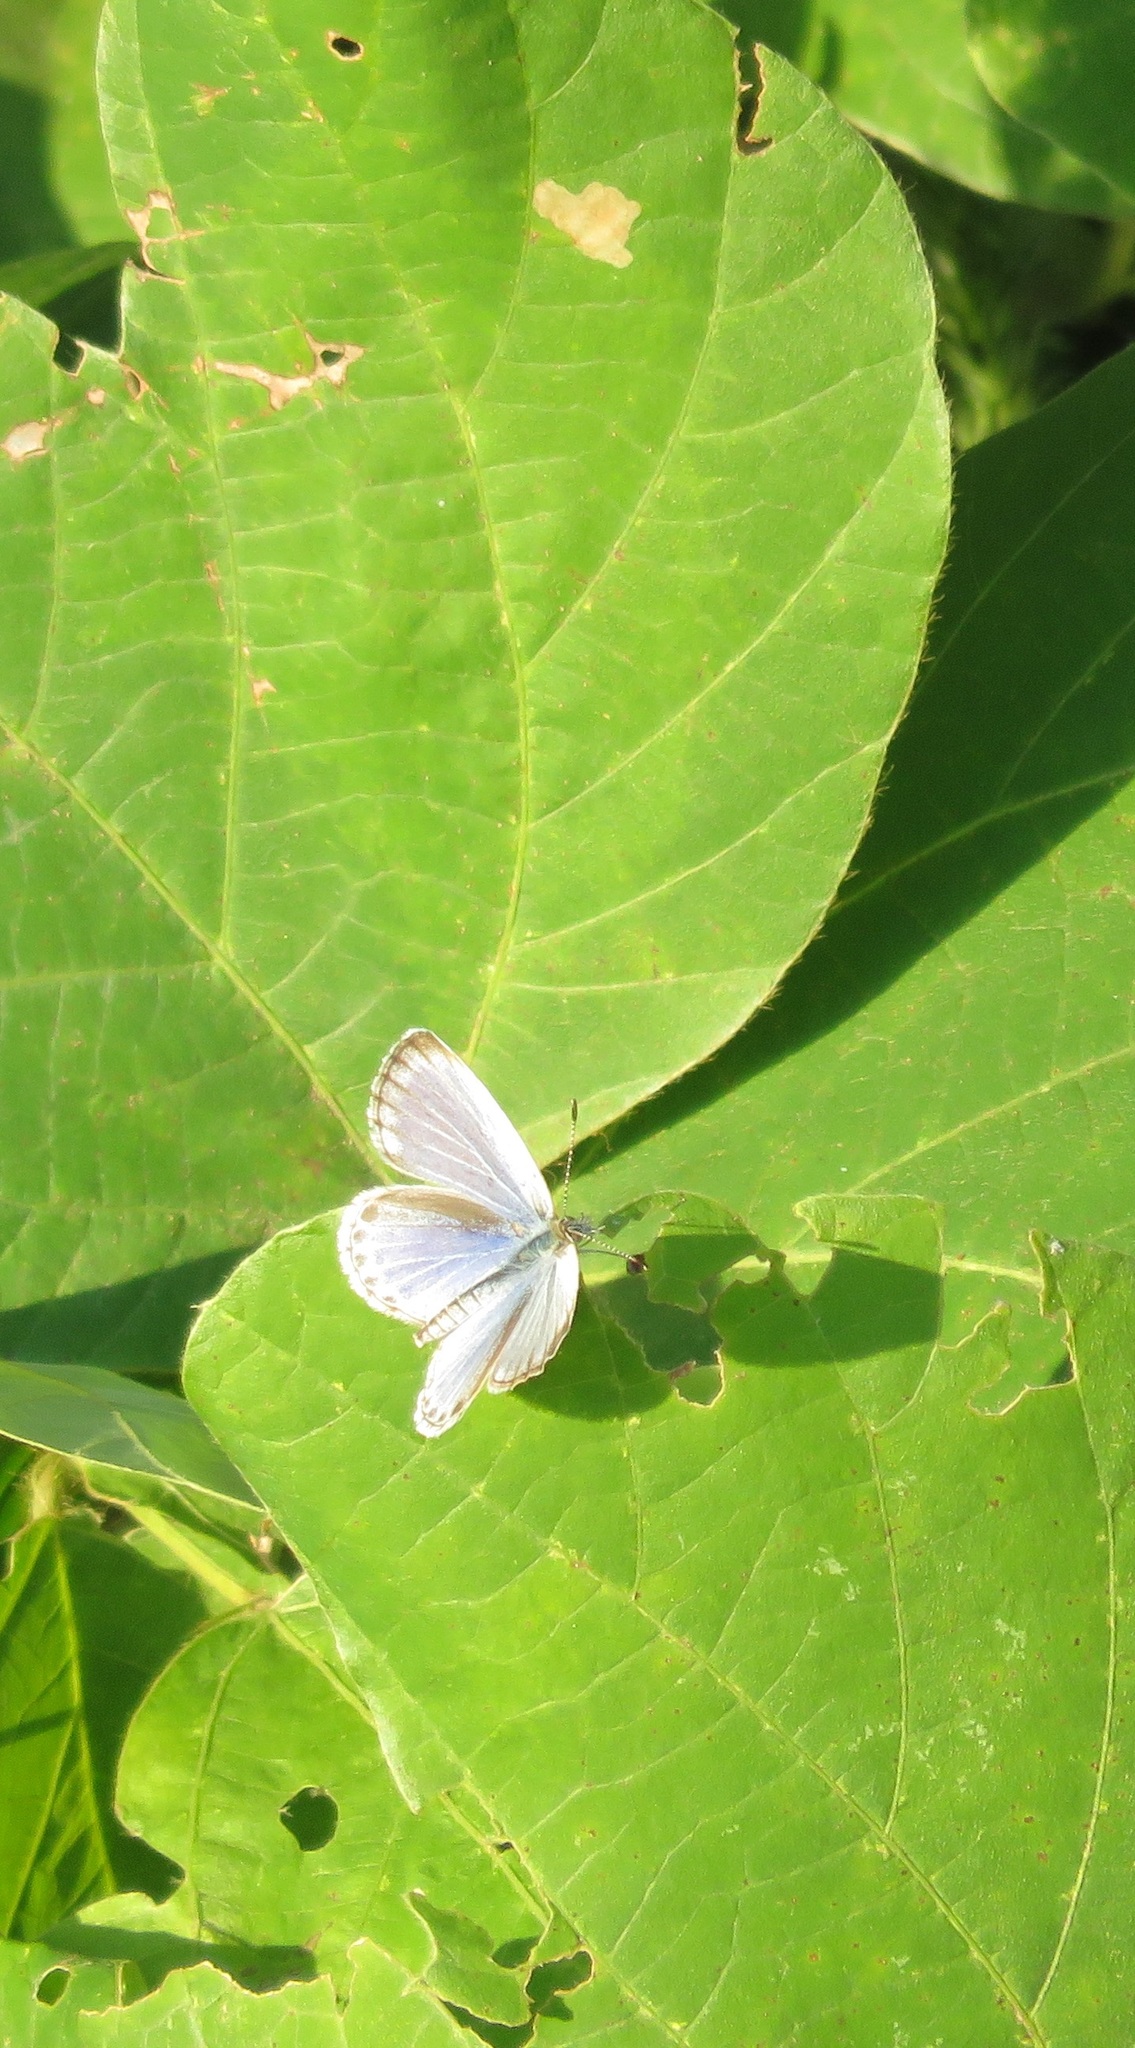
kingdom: Animalia
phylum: Arthropoda
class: Insecta
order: Lepidoptera
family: Lycaenidae
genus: Pseudozizeeria
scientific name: Pseudozizeeria maha
